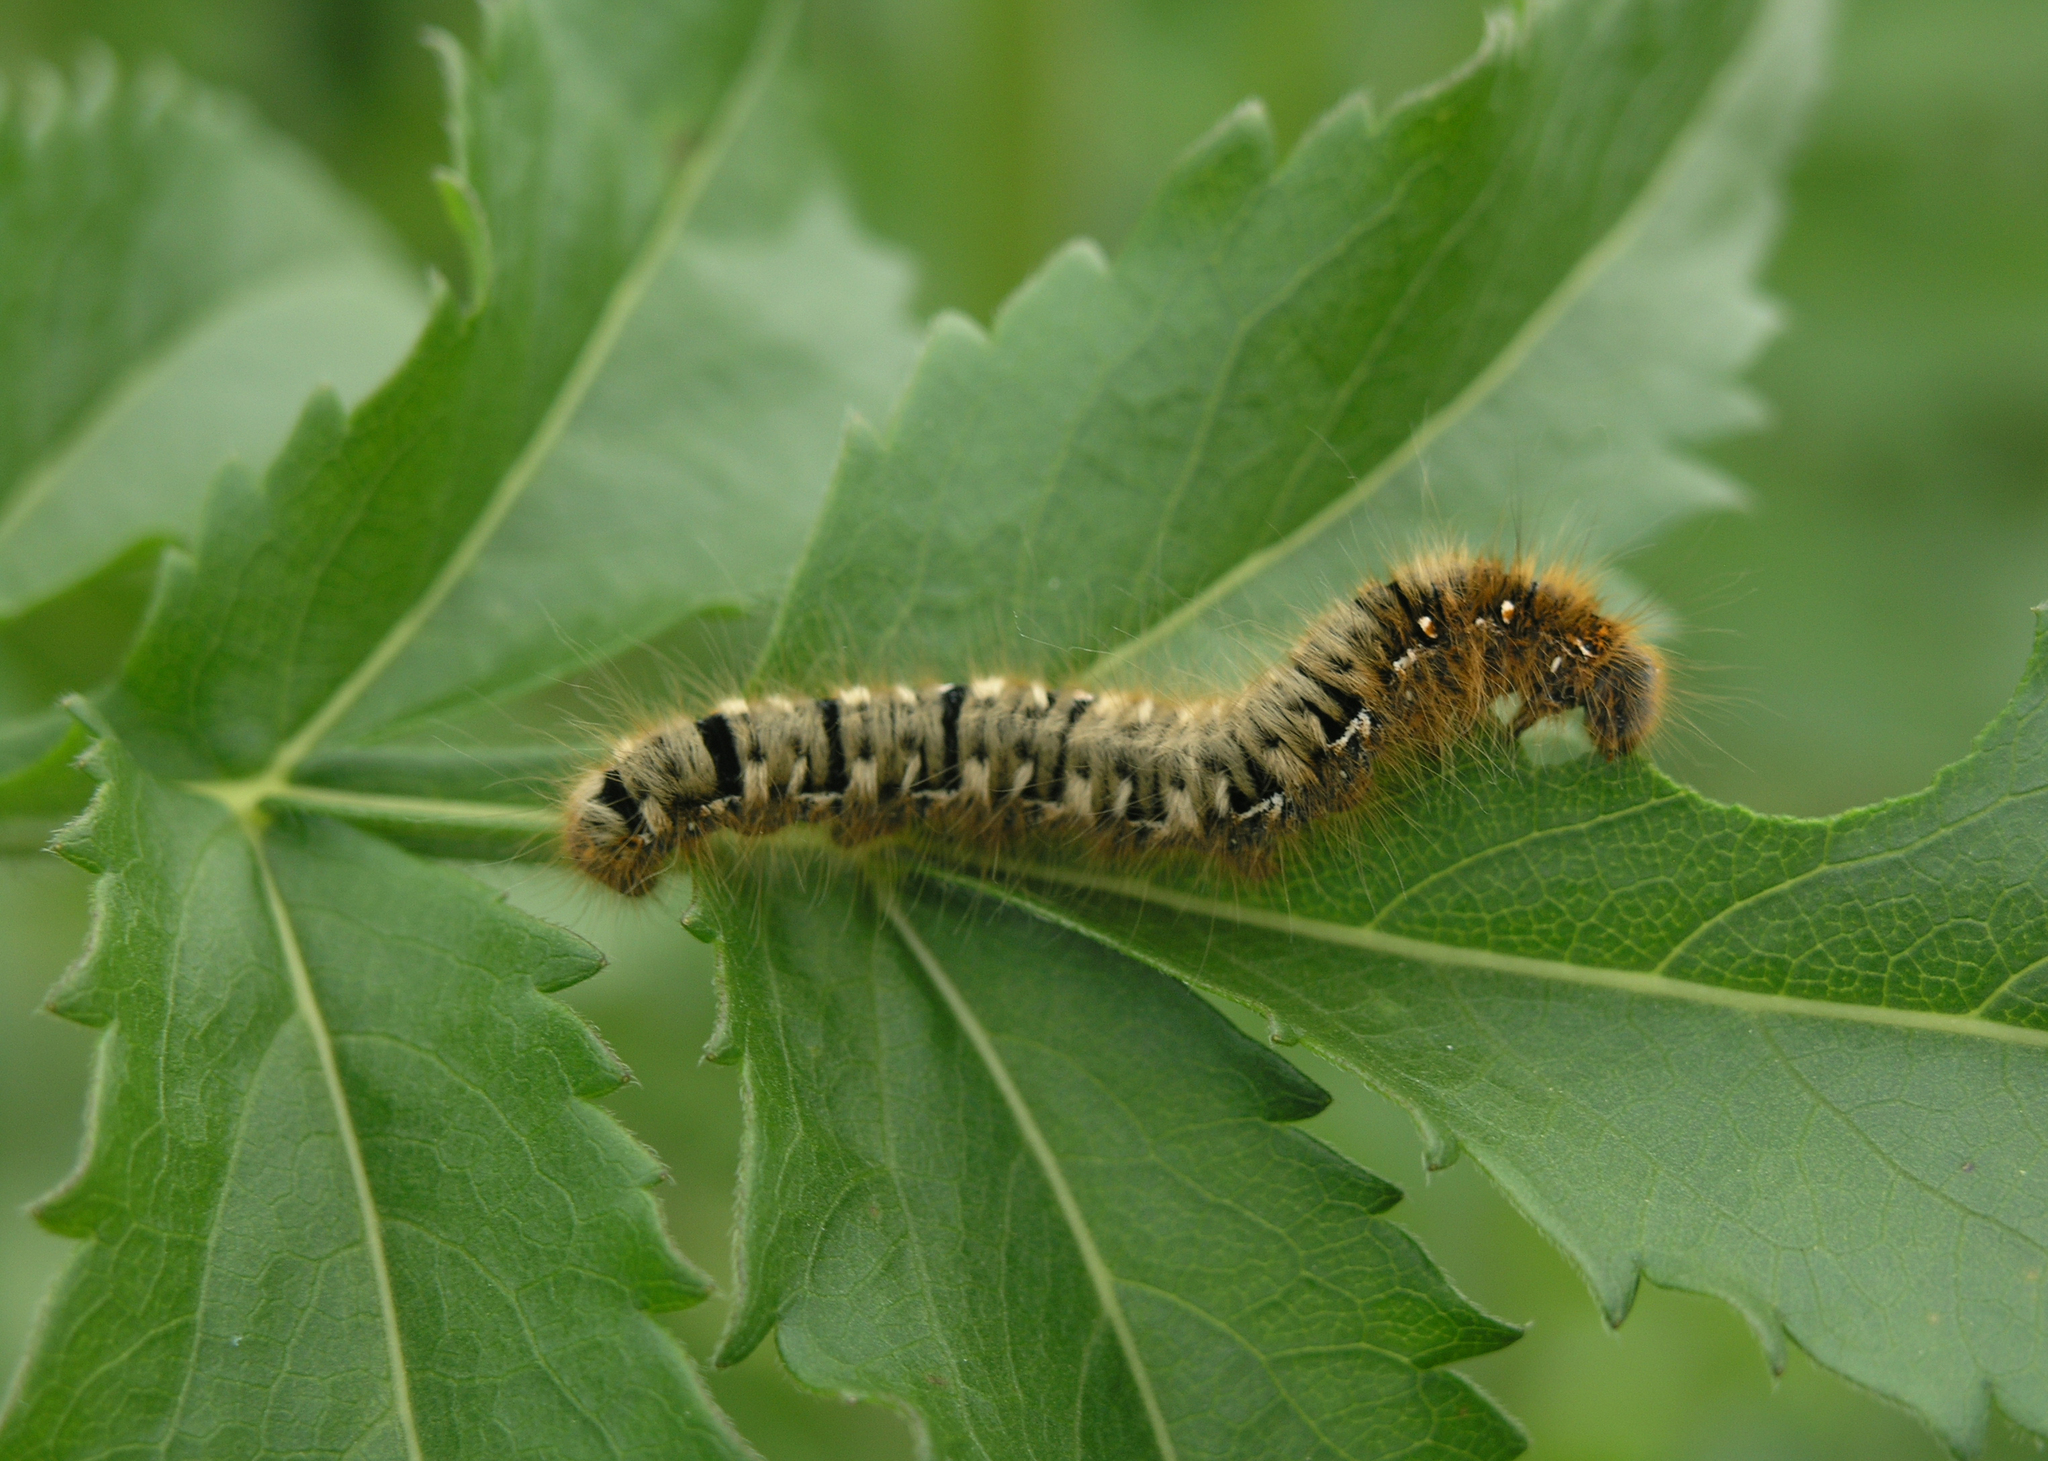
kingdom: Animalia
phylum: Arthropoda
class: Insecta
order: Lepidoptera
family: Lasiocampidae
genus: Lasiocampa
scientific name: Lasiocampa quercus
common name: Oak eggar
